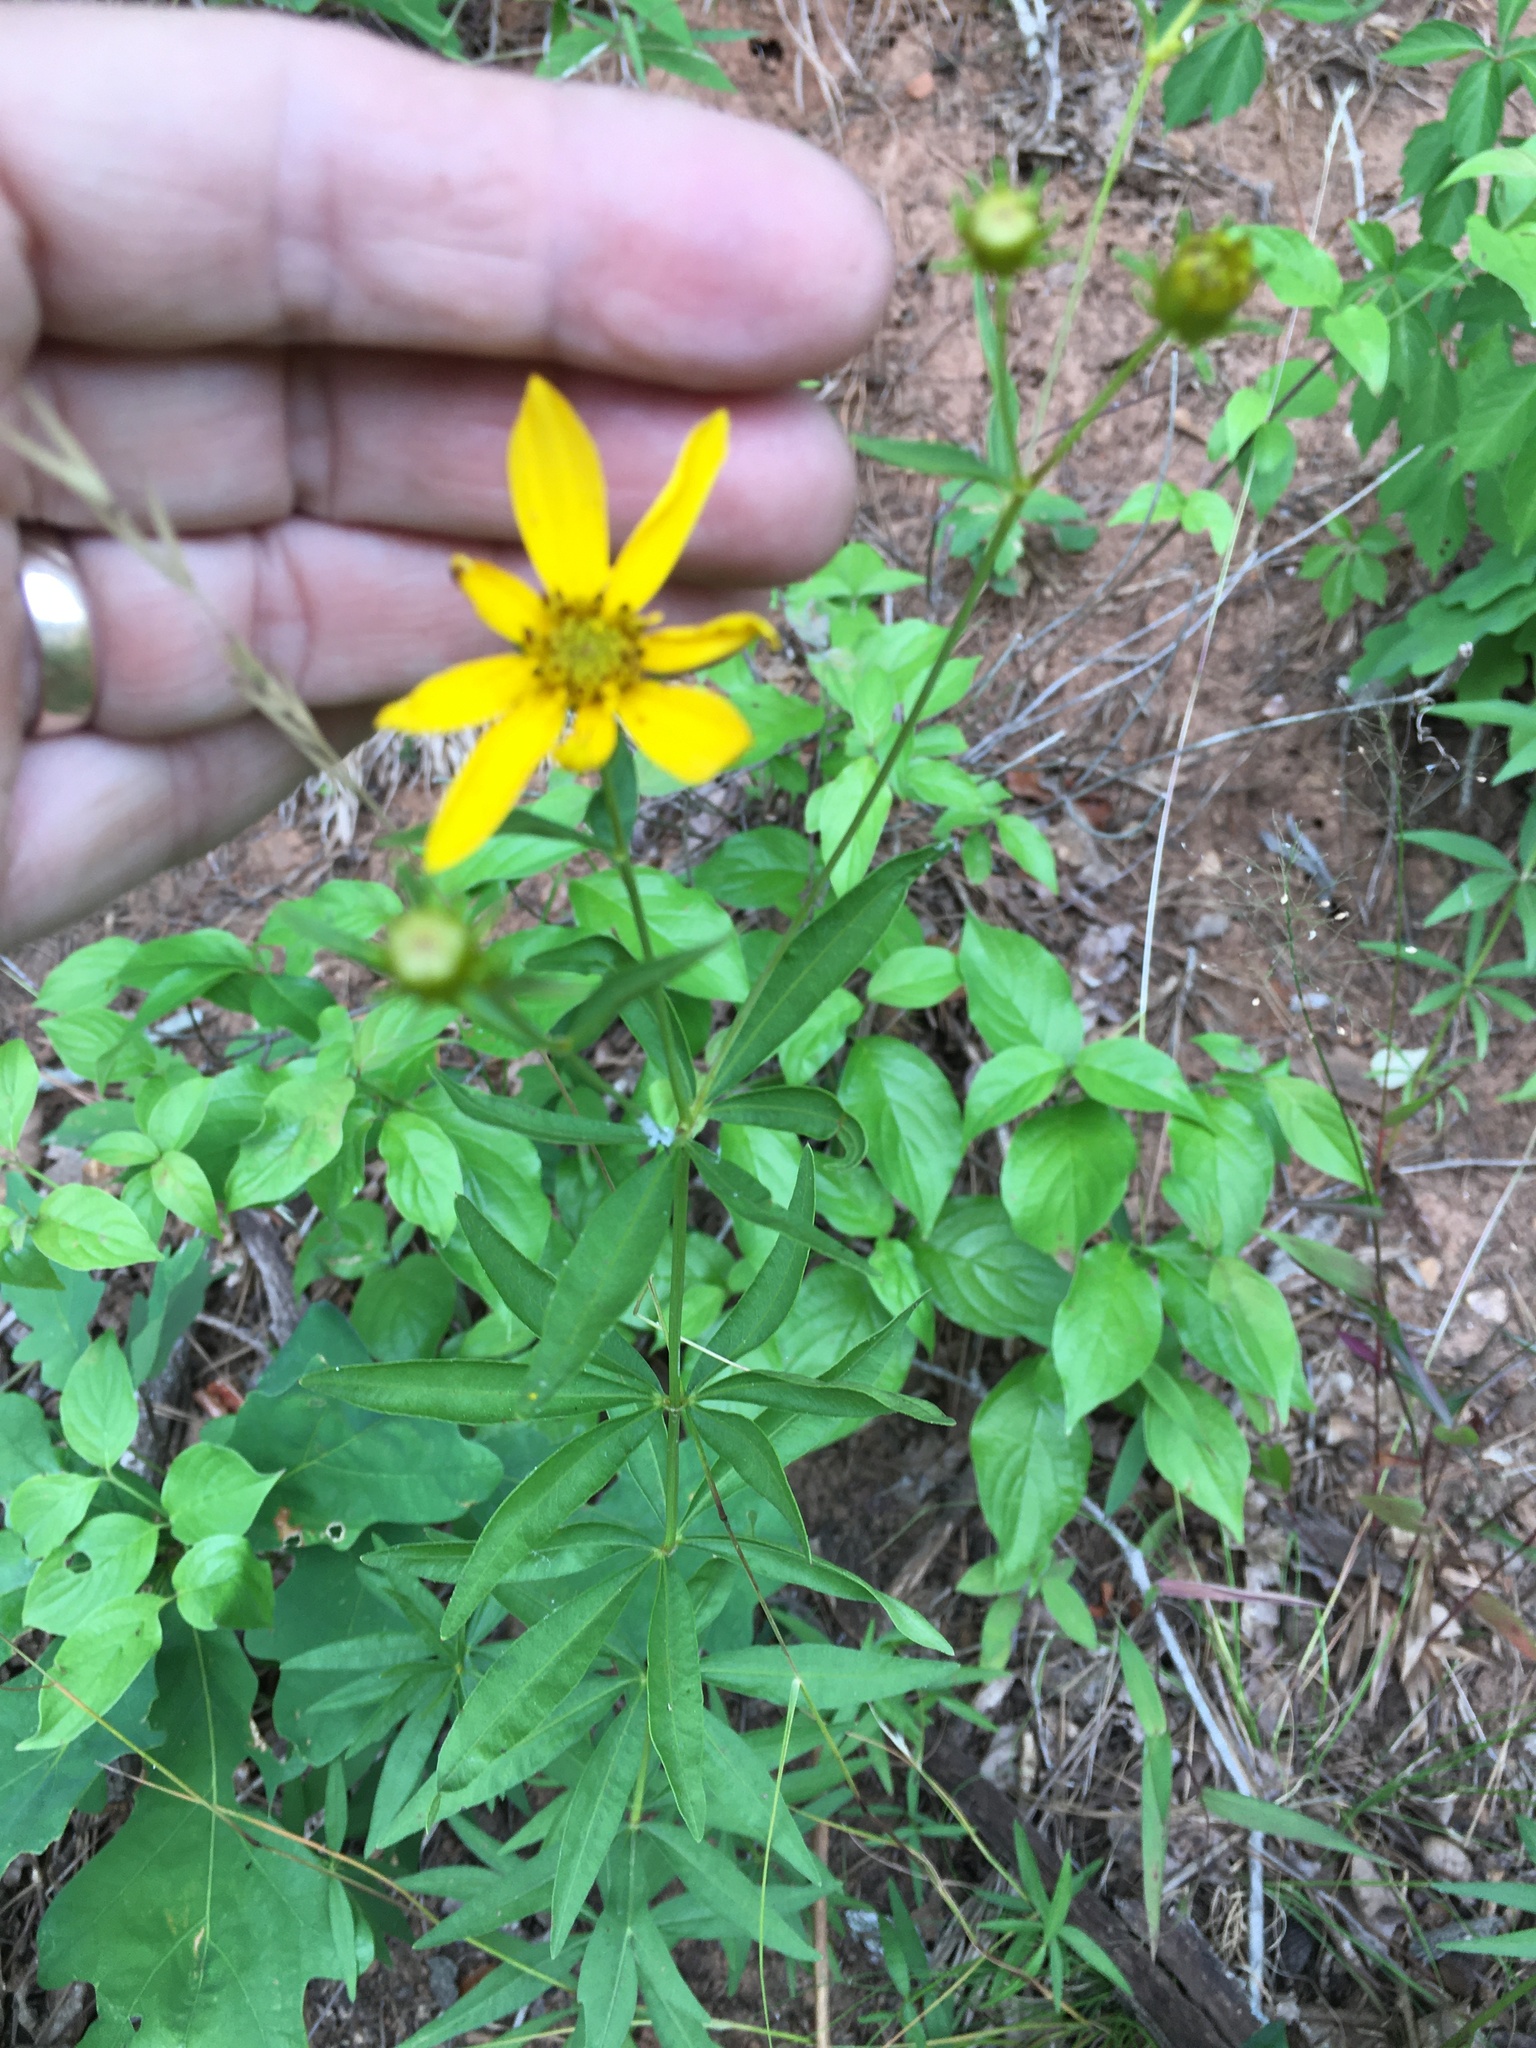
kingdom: Plantae
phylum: Tracheophyta
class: Magnoliopsida
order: Asterales
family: Asteraceae
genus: Coreopsis
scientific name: Coreopsis major
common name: Forest tickseed
